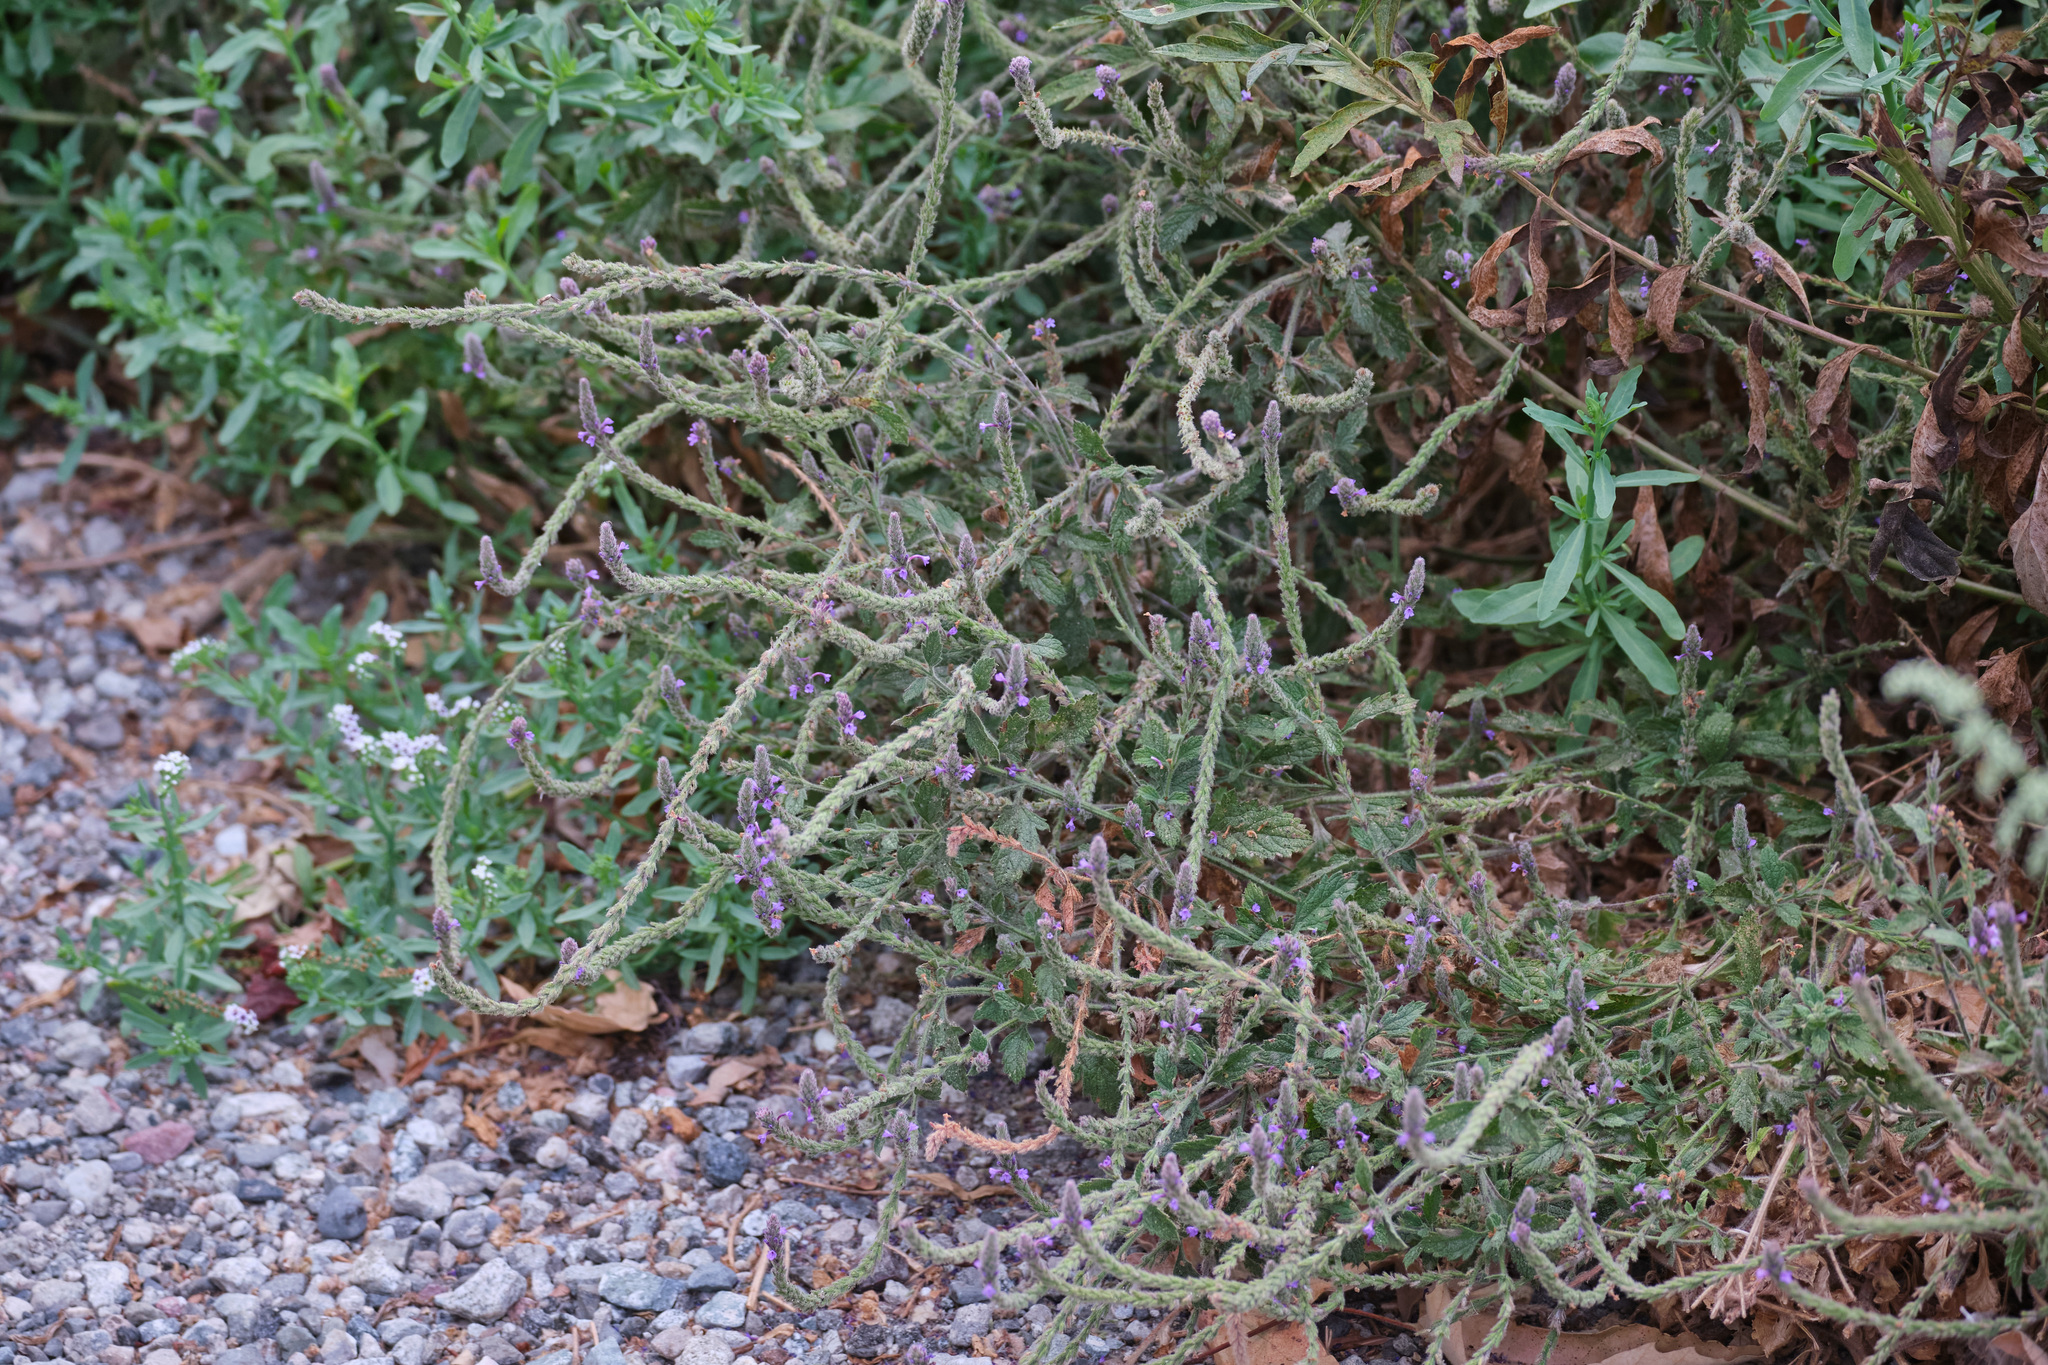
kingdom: Plantae
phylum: Tracheophyta
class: Magnoliopsida
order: Lamiales
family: Verbenaceae
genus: Verbena
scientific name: Verbena lasiostachys
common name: Vervain
